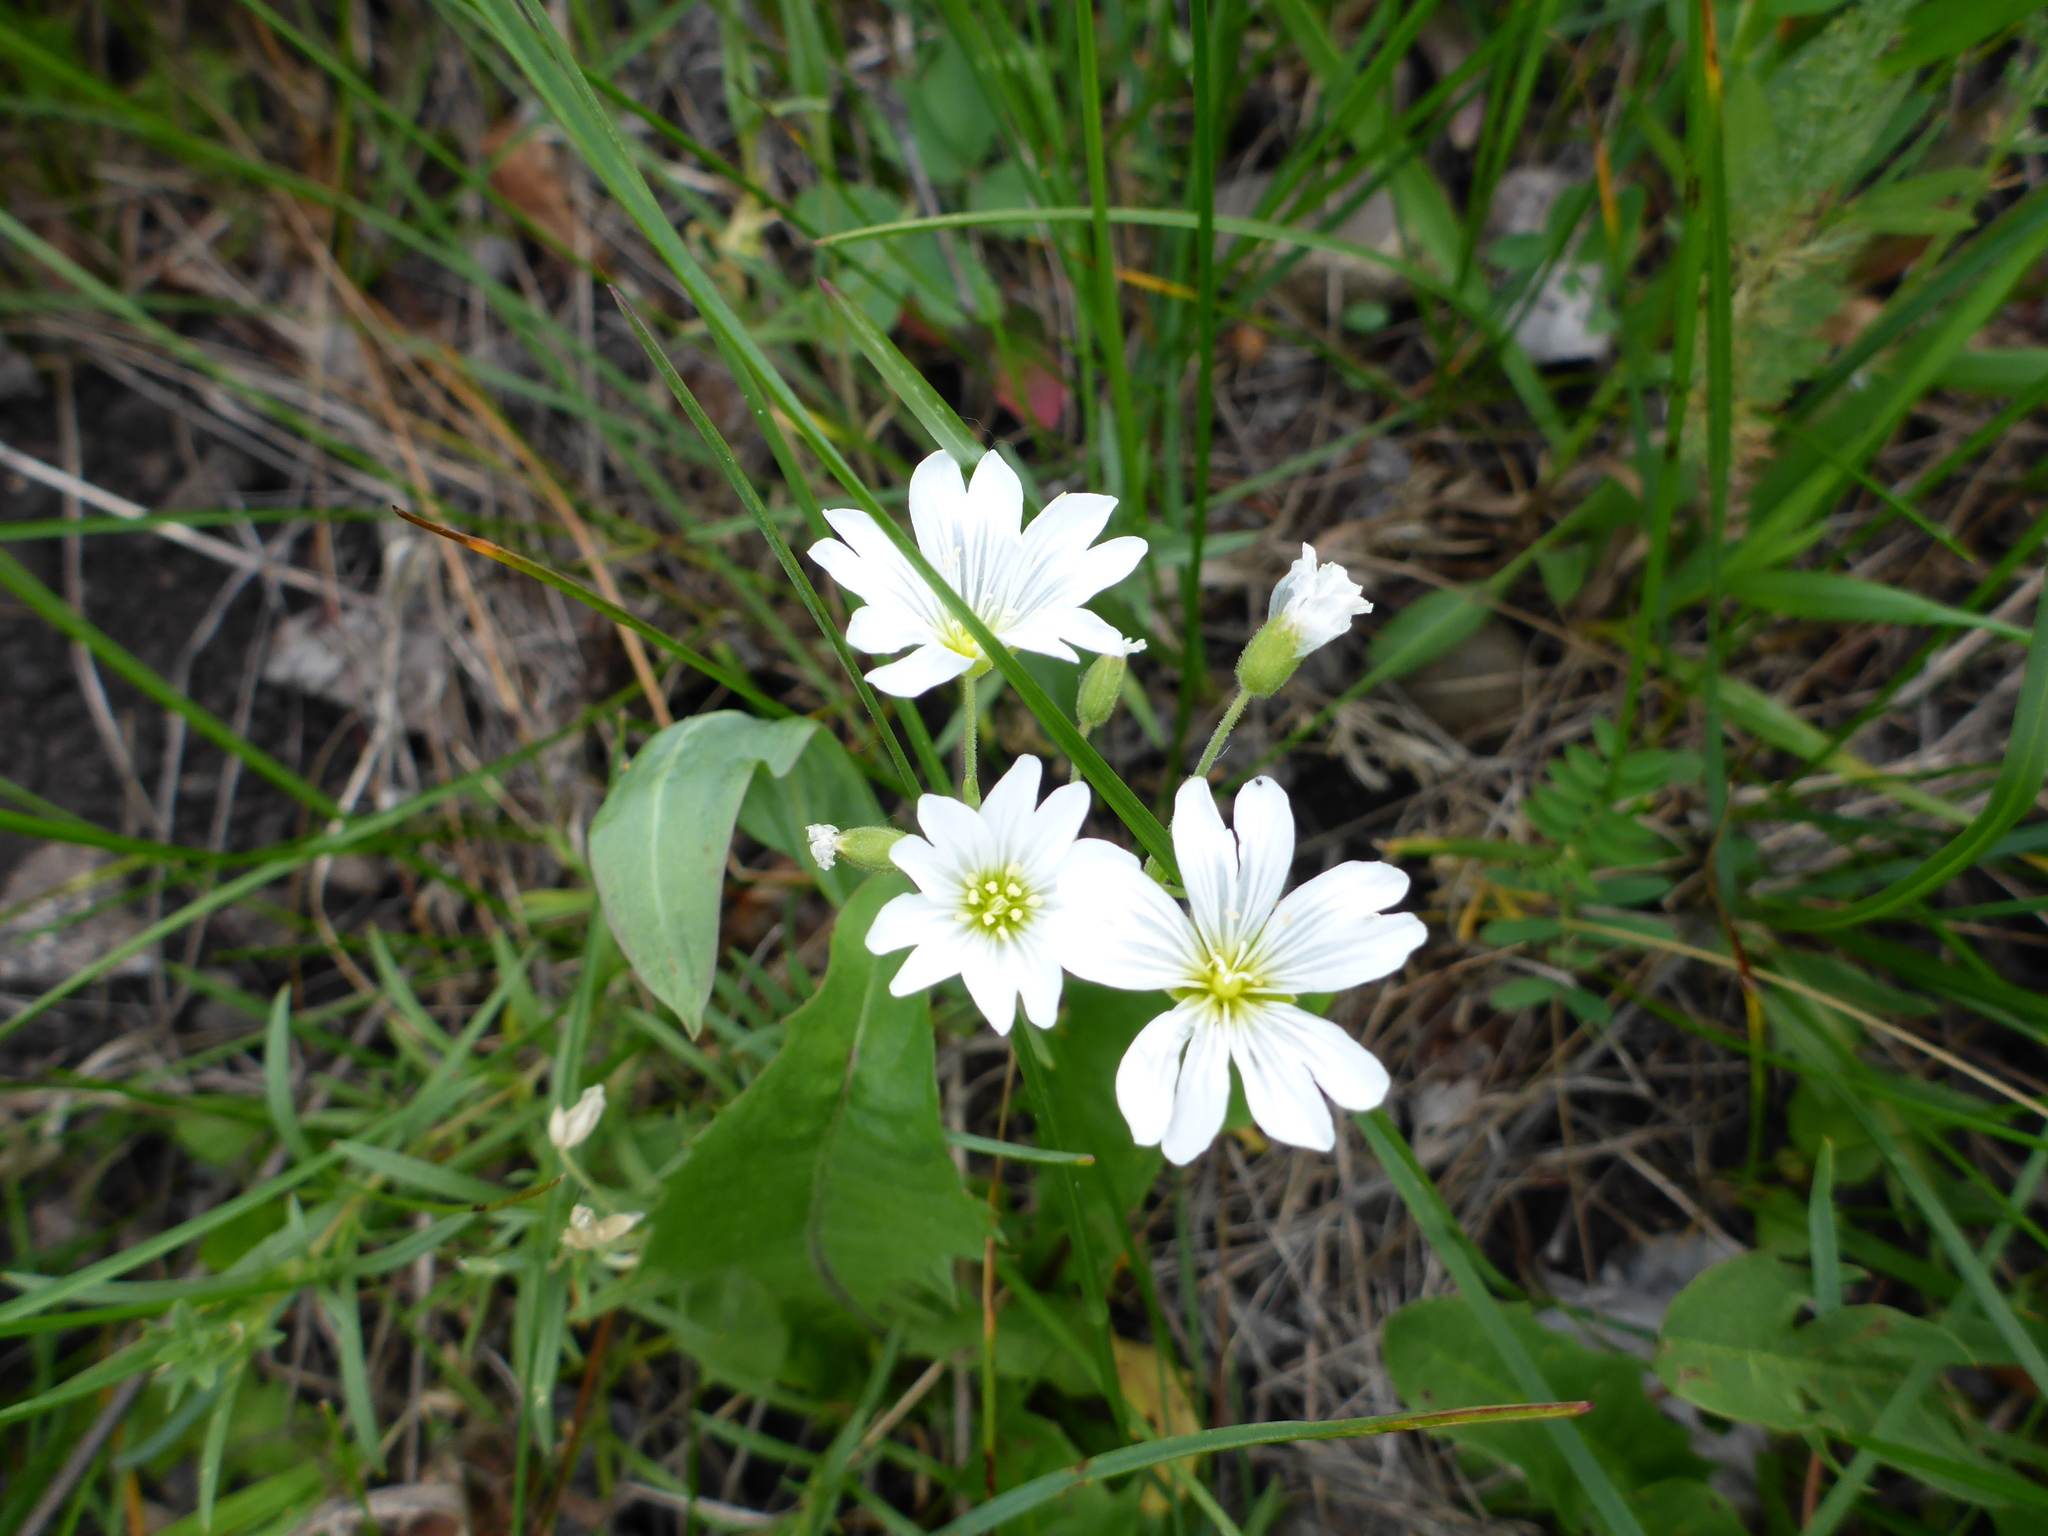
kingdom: Plantae
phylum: Tracheophyta
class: Magnoliopsida
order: Caryophyllales
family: Caryophyllaceae
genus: Cerastium
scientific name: Cerastium arvense
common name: Field mouse-ear
